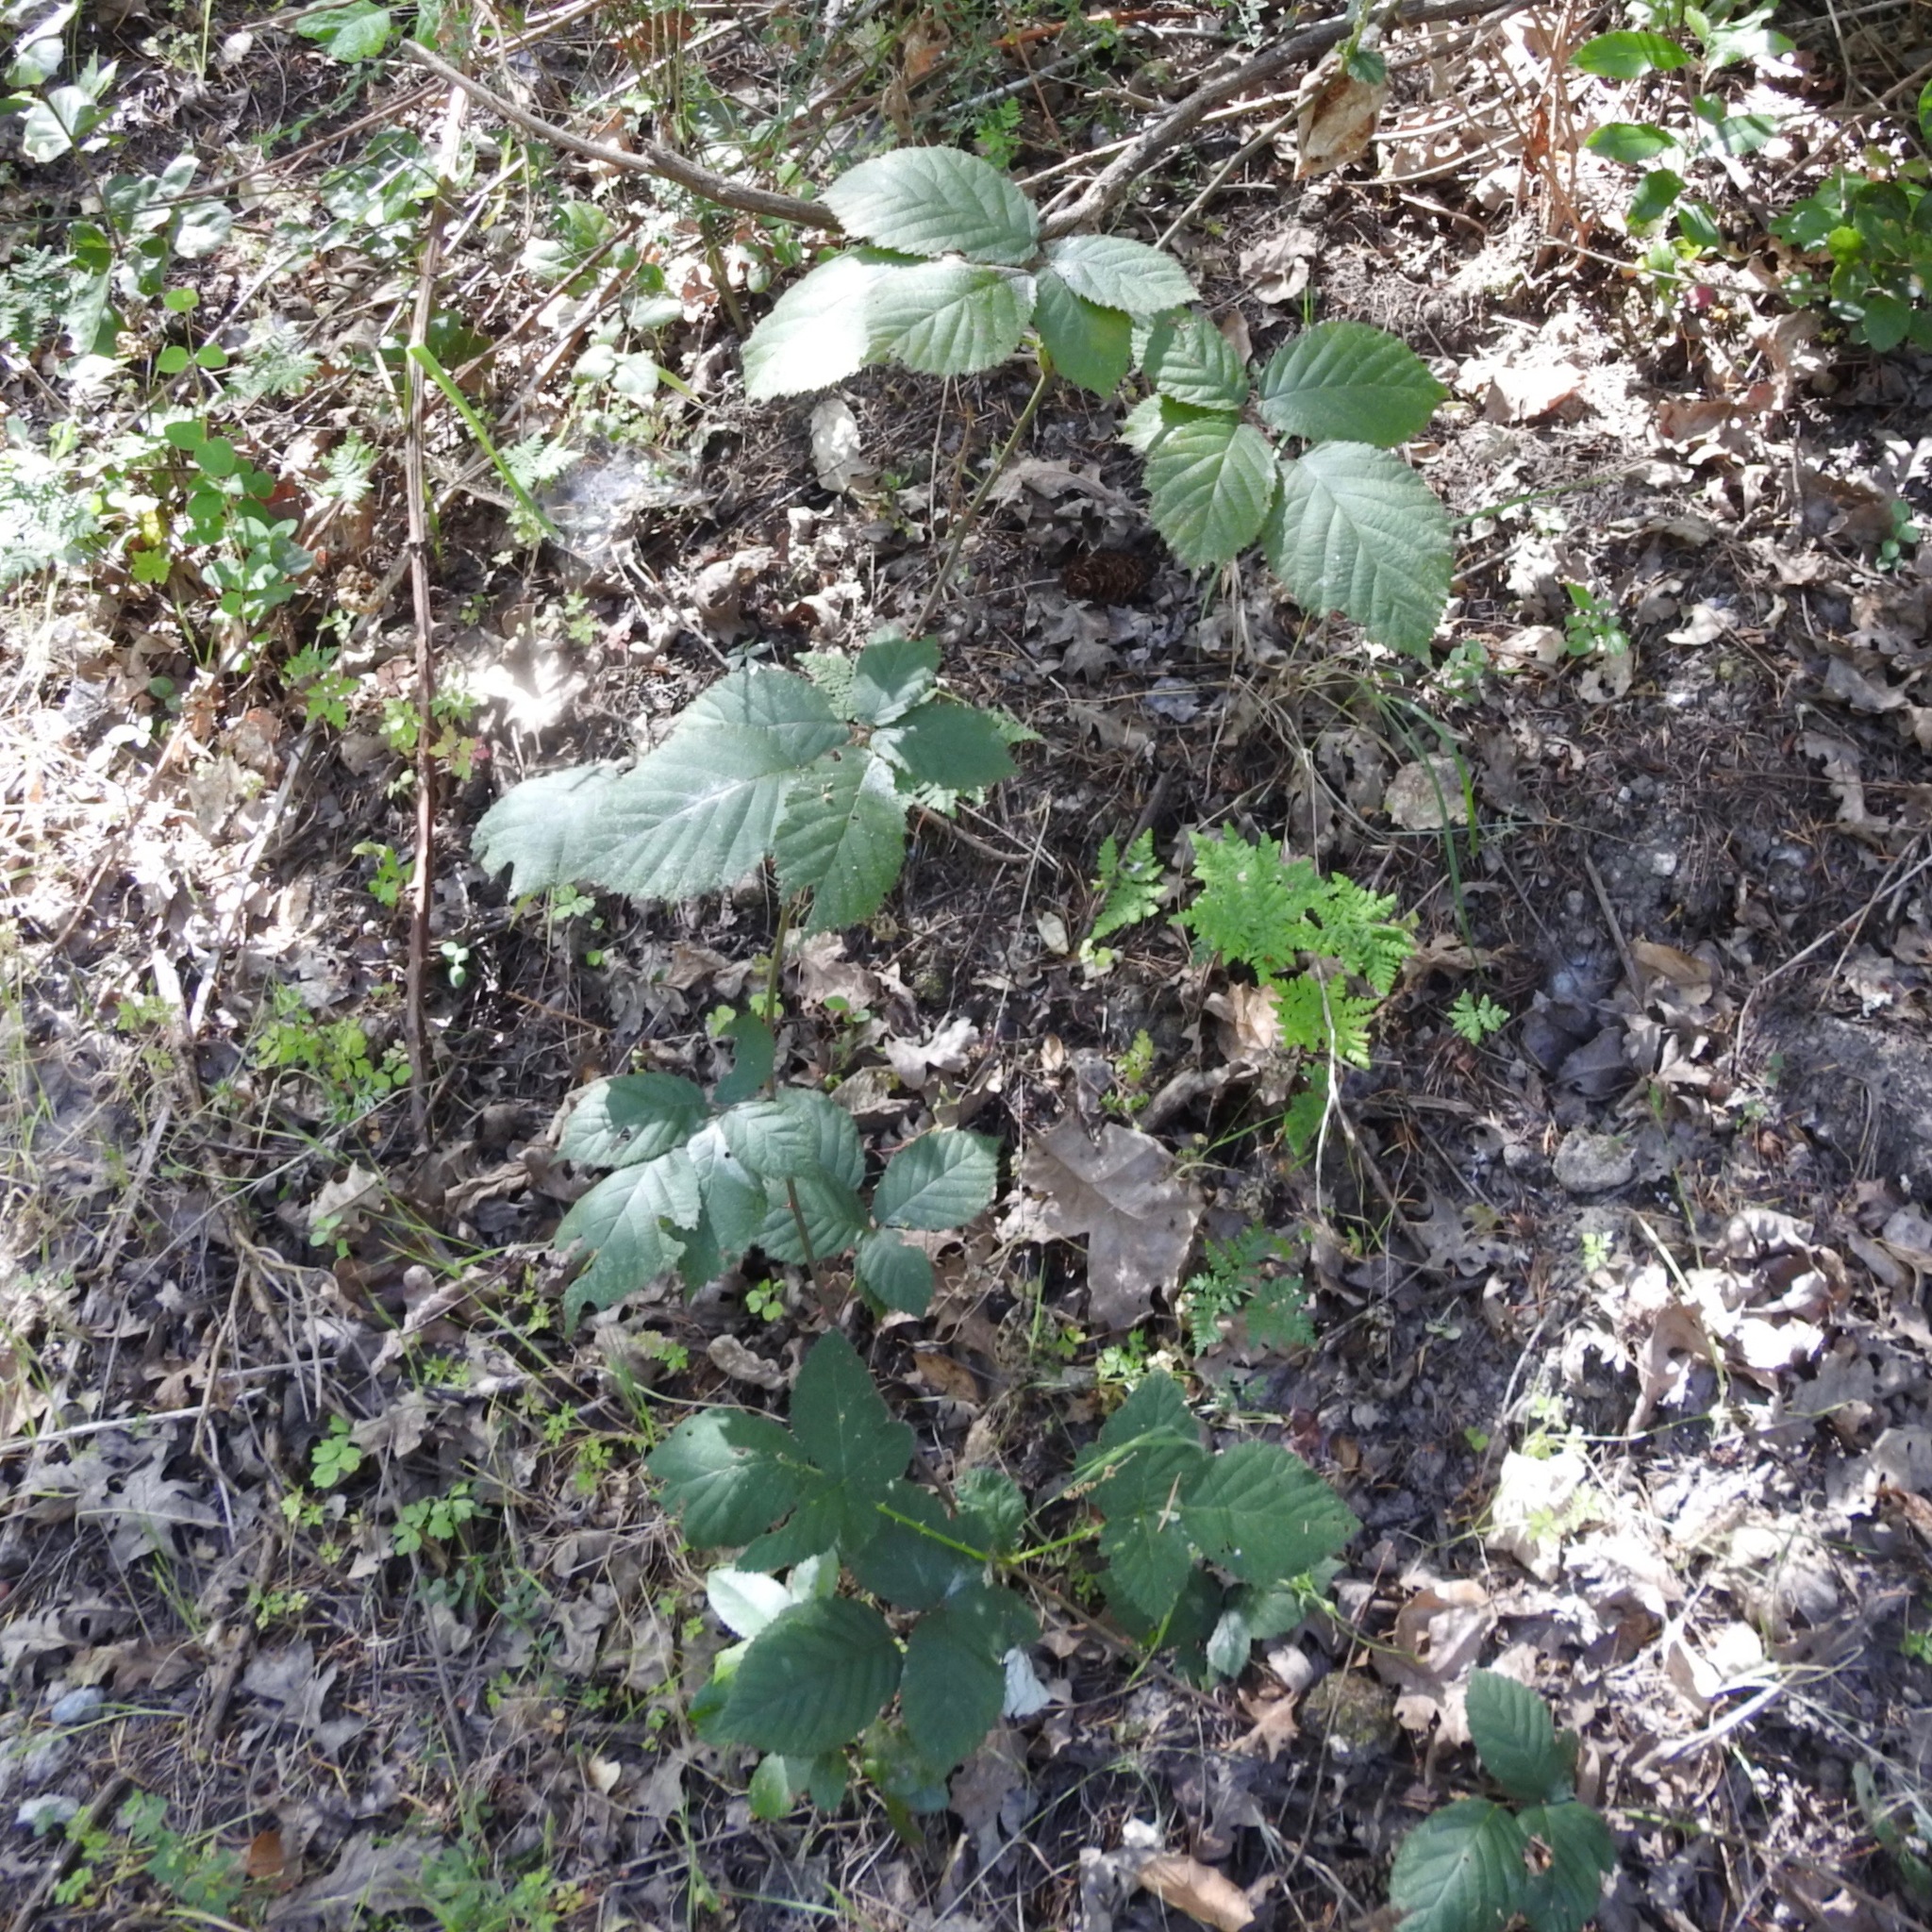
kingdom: Plantae
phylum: Tracheophyta
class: Magnoliopsida
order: Rosales
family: Rosaceae
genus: Rubus
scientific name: Rubus armeniacus
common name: Himalayan blackberry
